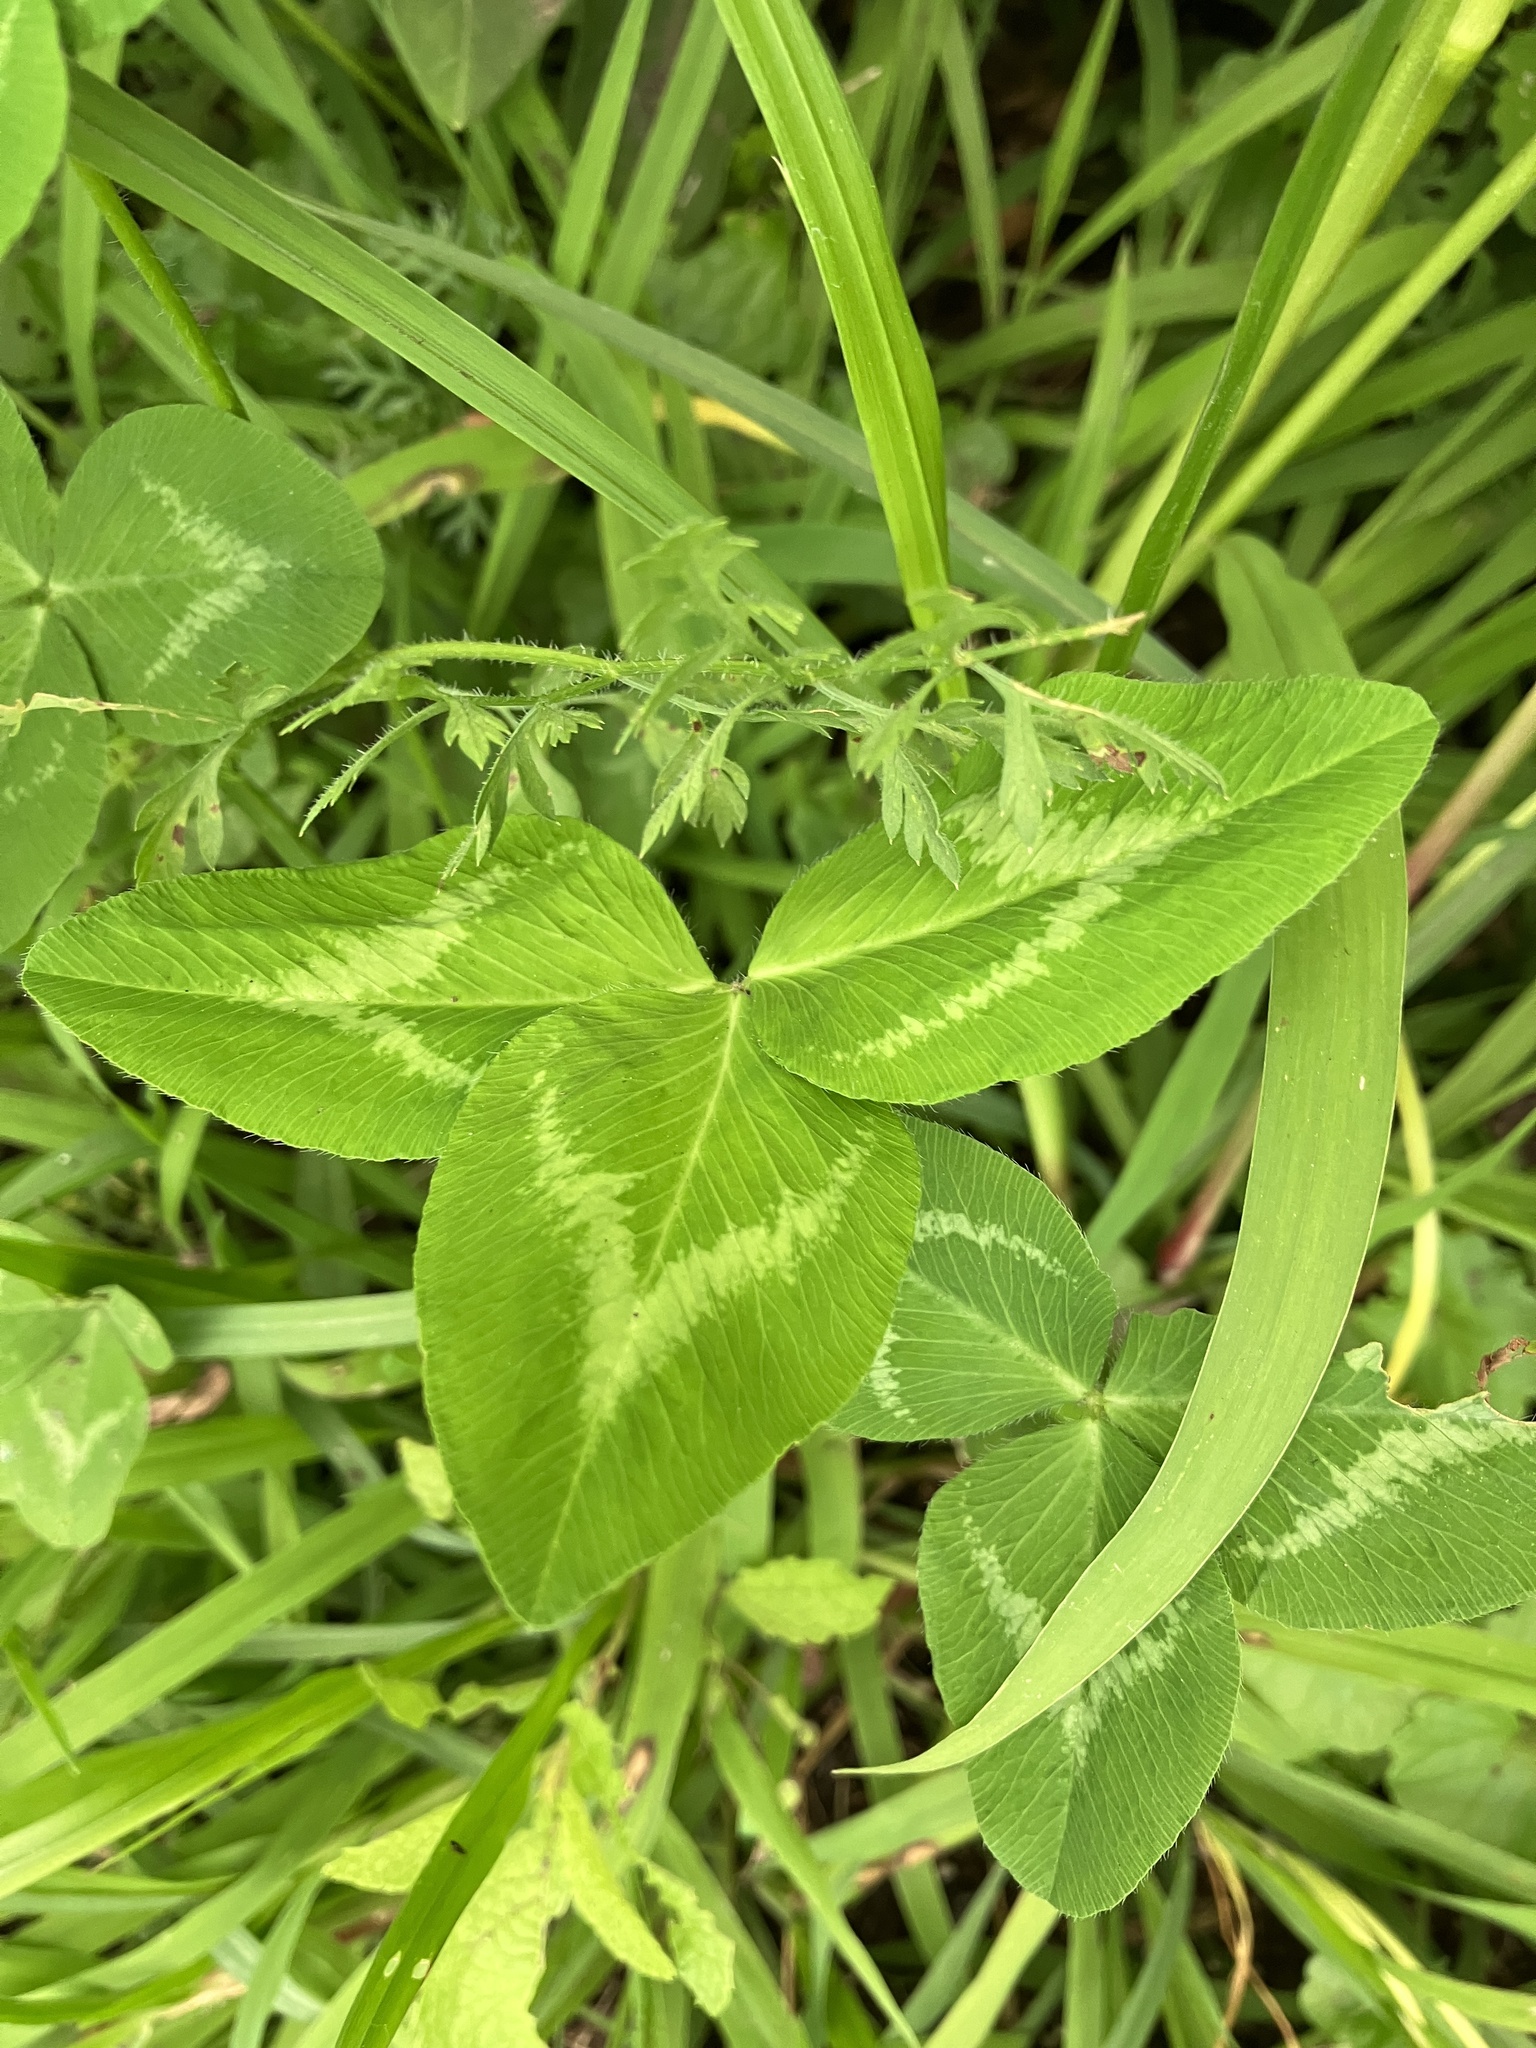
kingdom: Plantae
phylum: Tracheophyta
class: Magnoliopsida
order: Fabales
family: Fabaceae
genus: Trifolium
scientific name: Trifolium pratense
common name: Red clover
